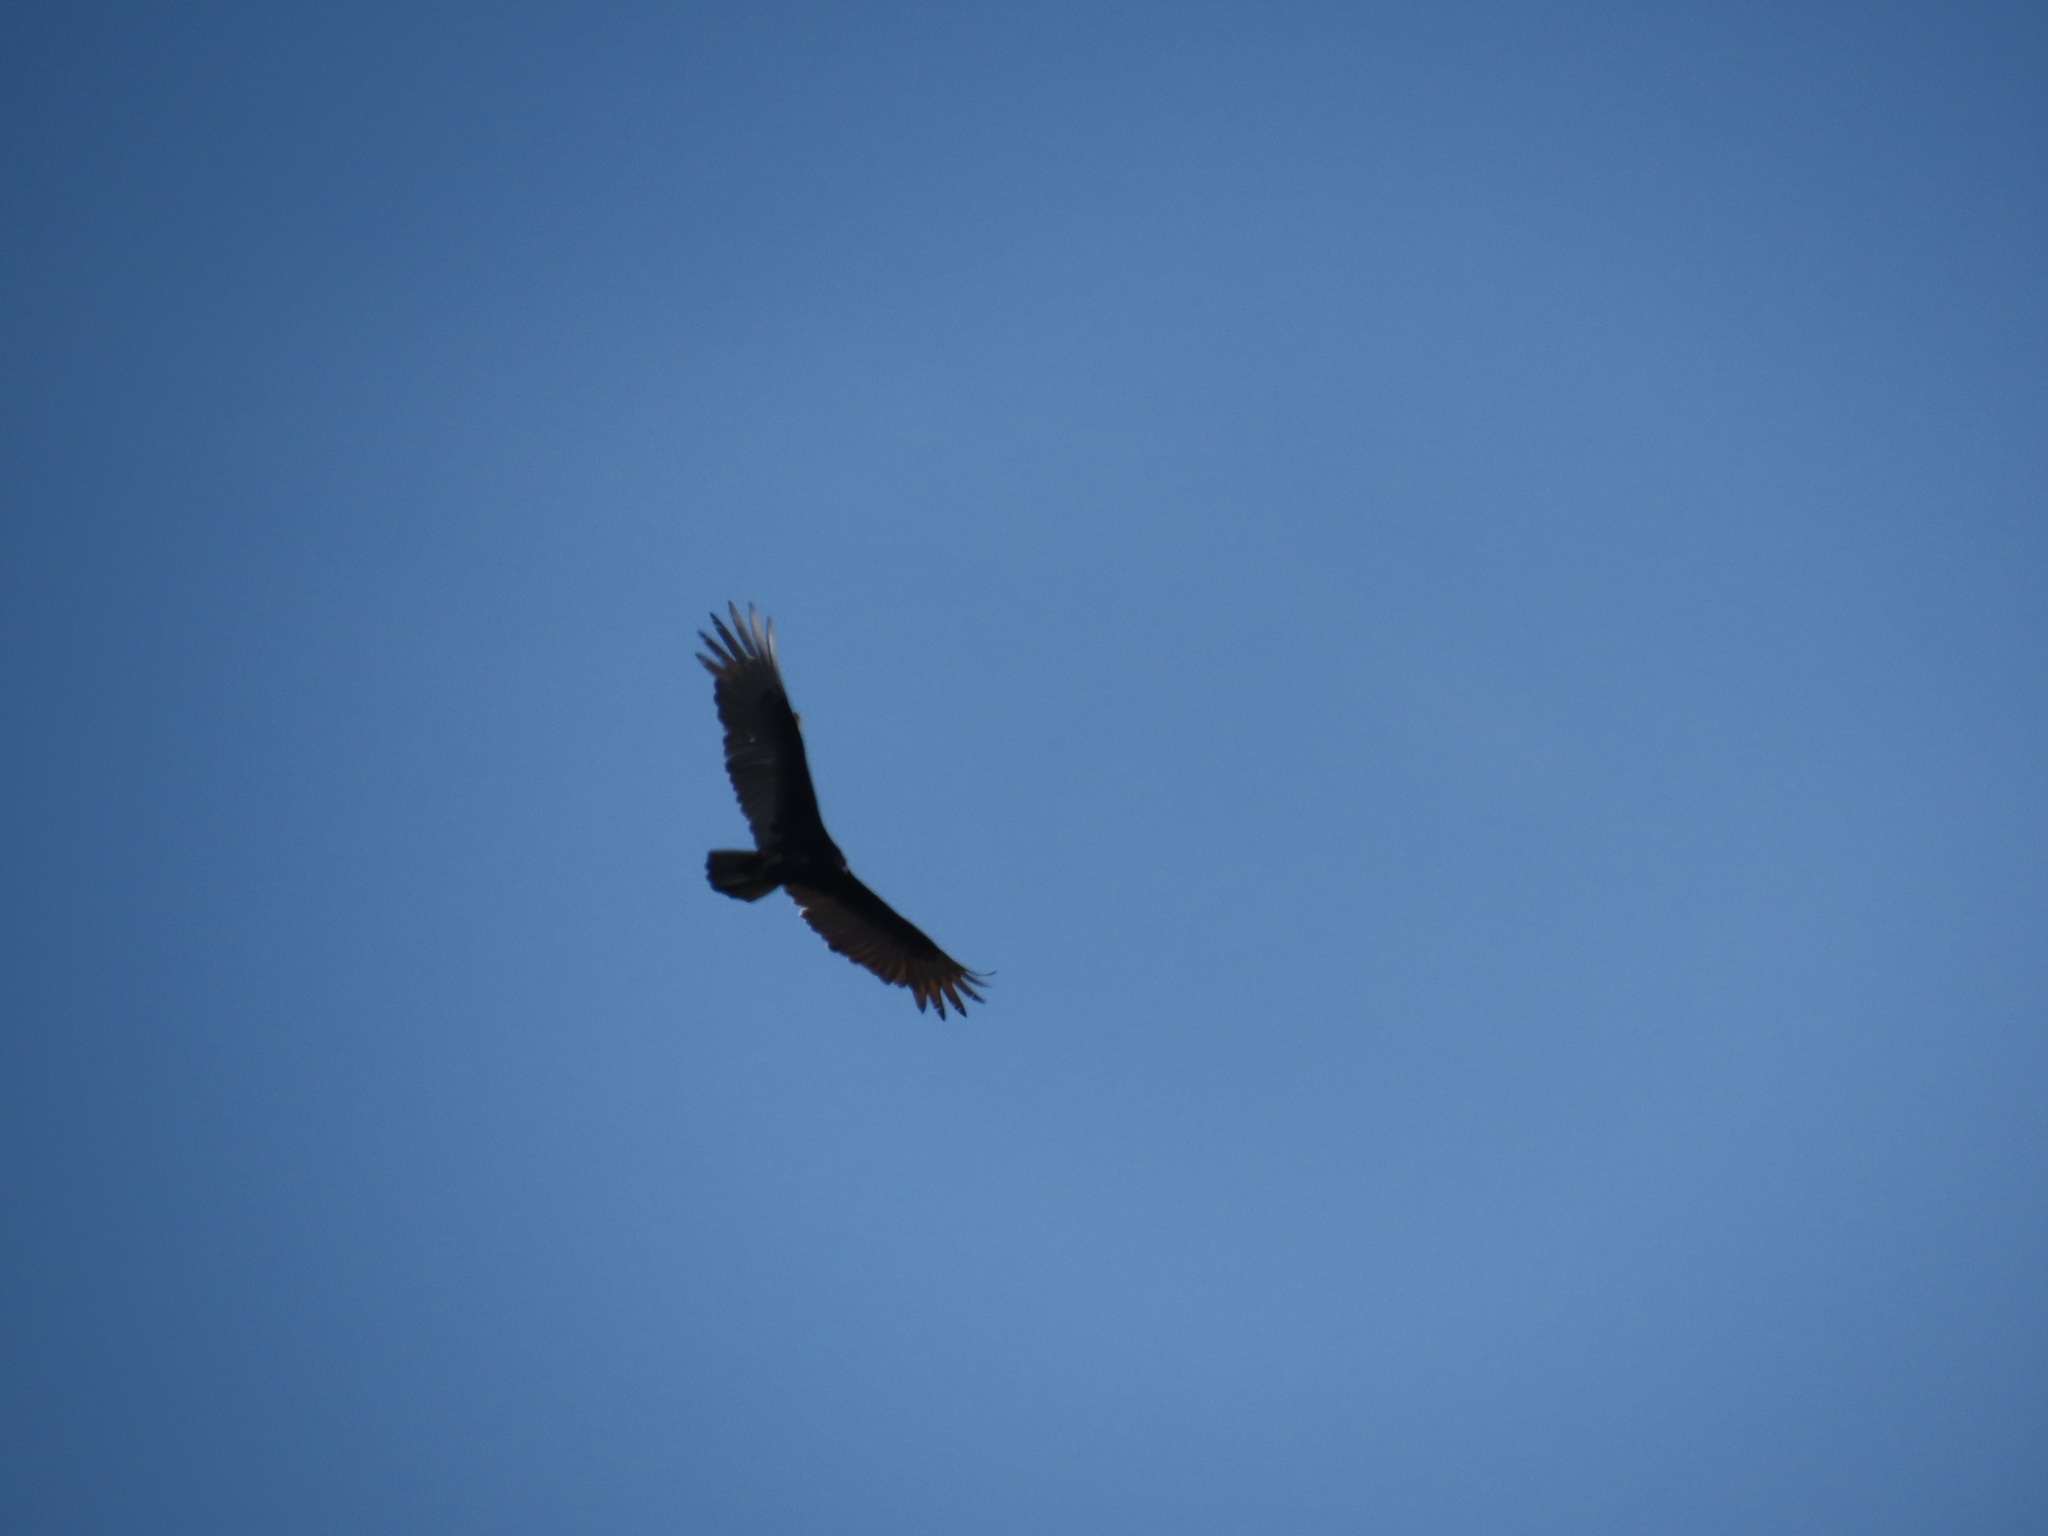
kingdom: Animalia
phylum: Chordata
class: Aves
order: Accipitriformes
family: Cathartidae
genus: Cathartes
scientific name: Cathartes aura
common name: Turkey vulture
